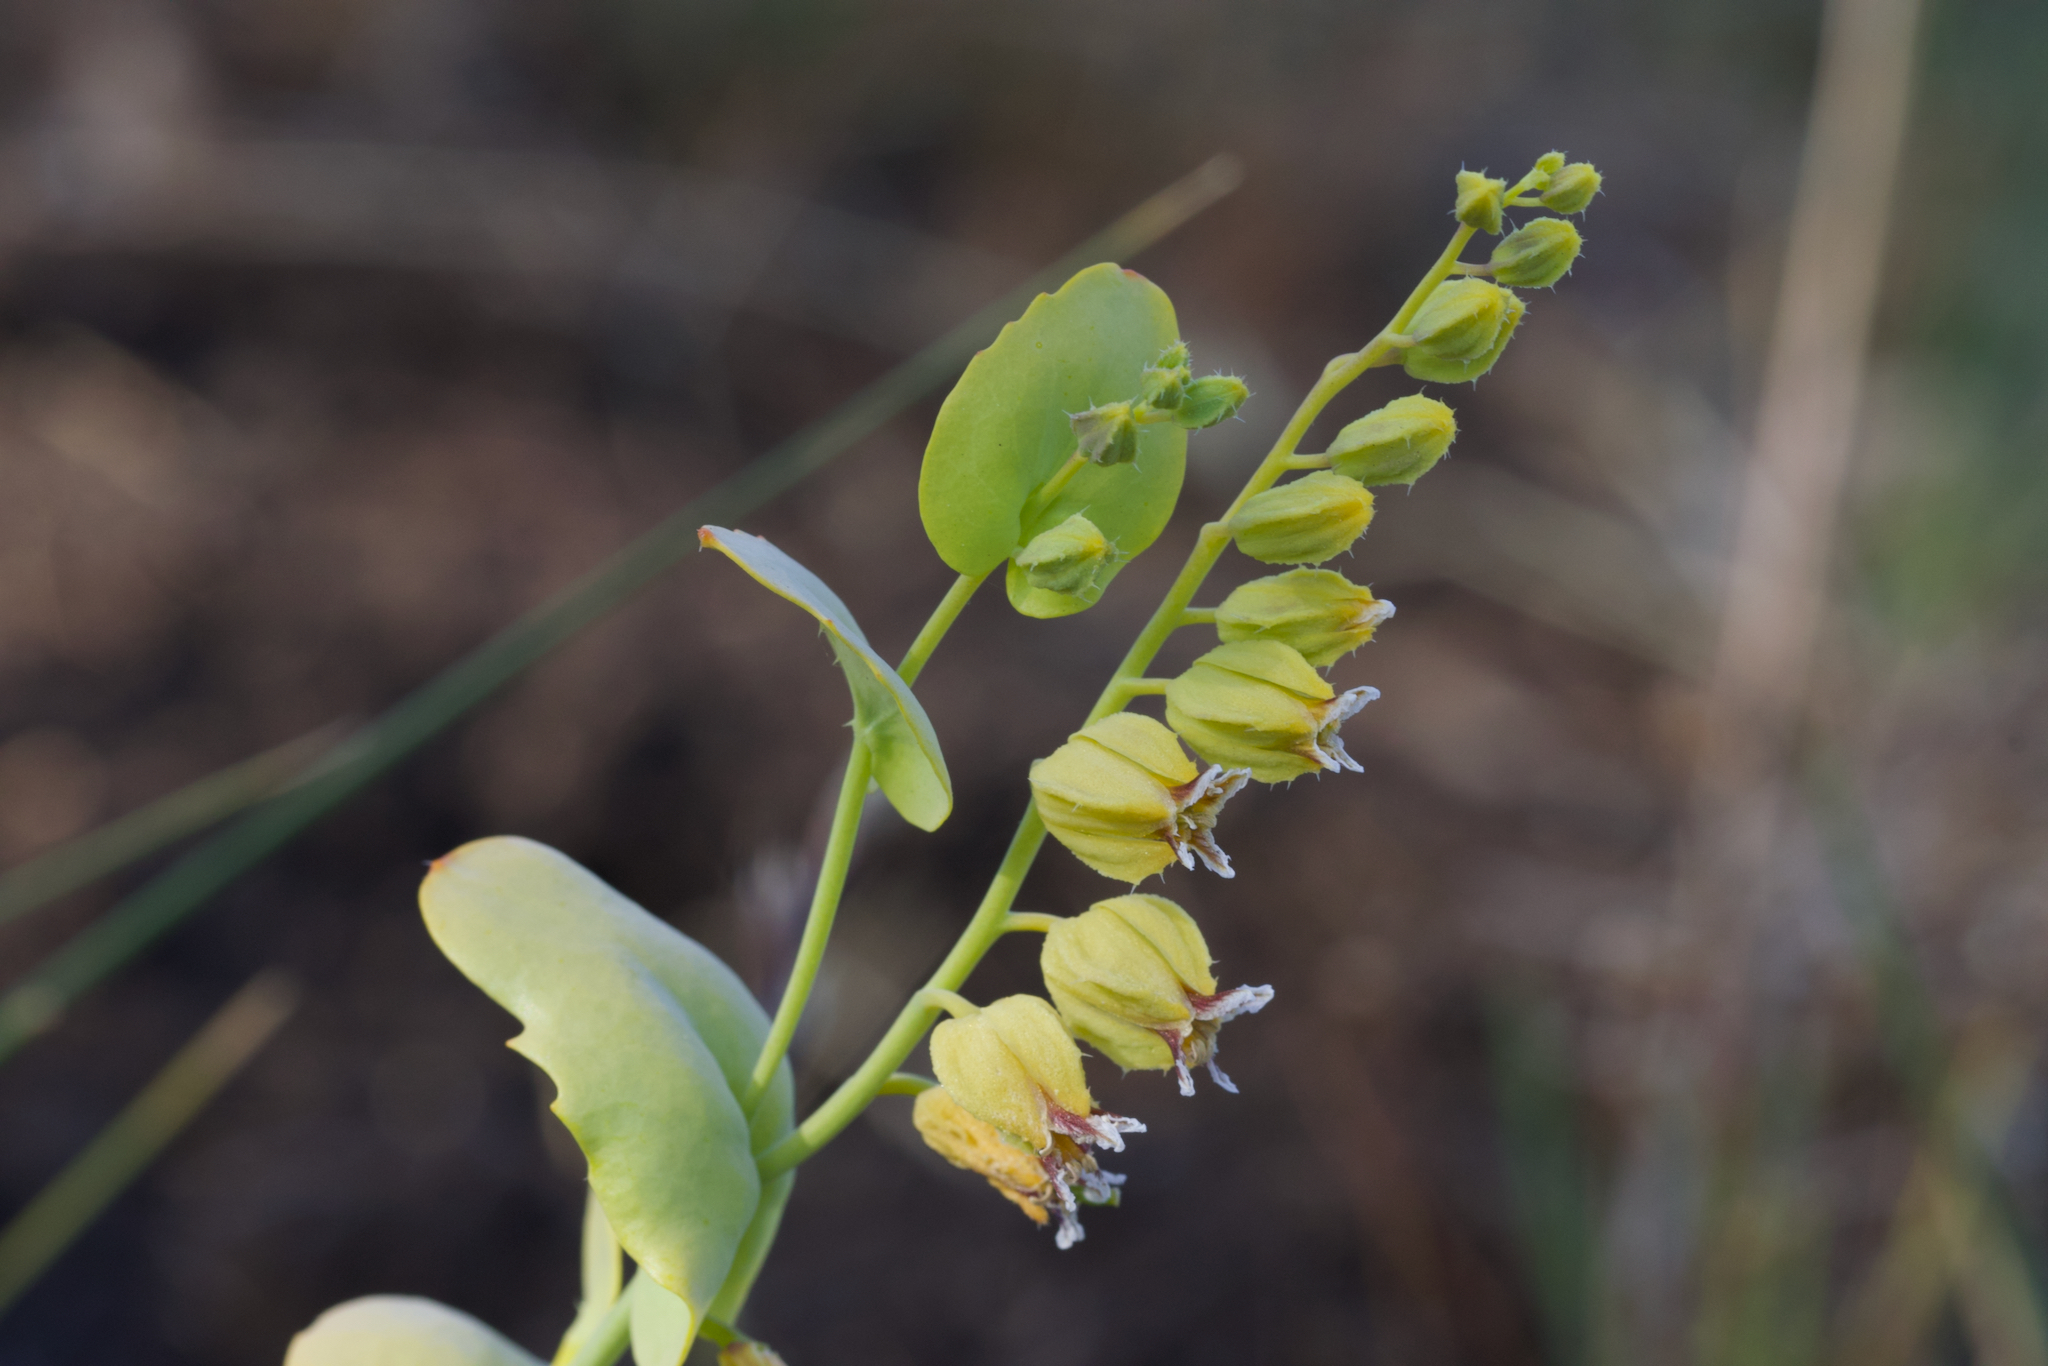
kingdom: Plantae
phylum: Tracheophyta
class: Magnoliopsida
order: Brassicales
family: Brassicaceae
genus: Streptanthus
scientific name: Streptanthus anomalus
